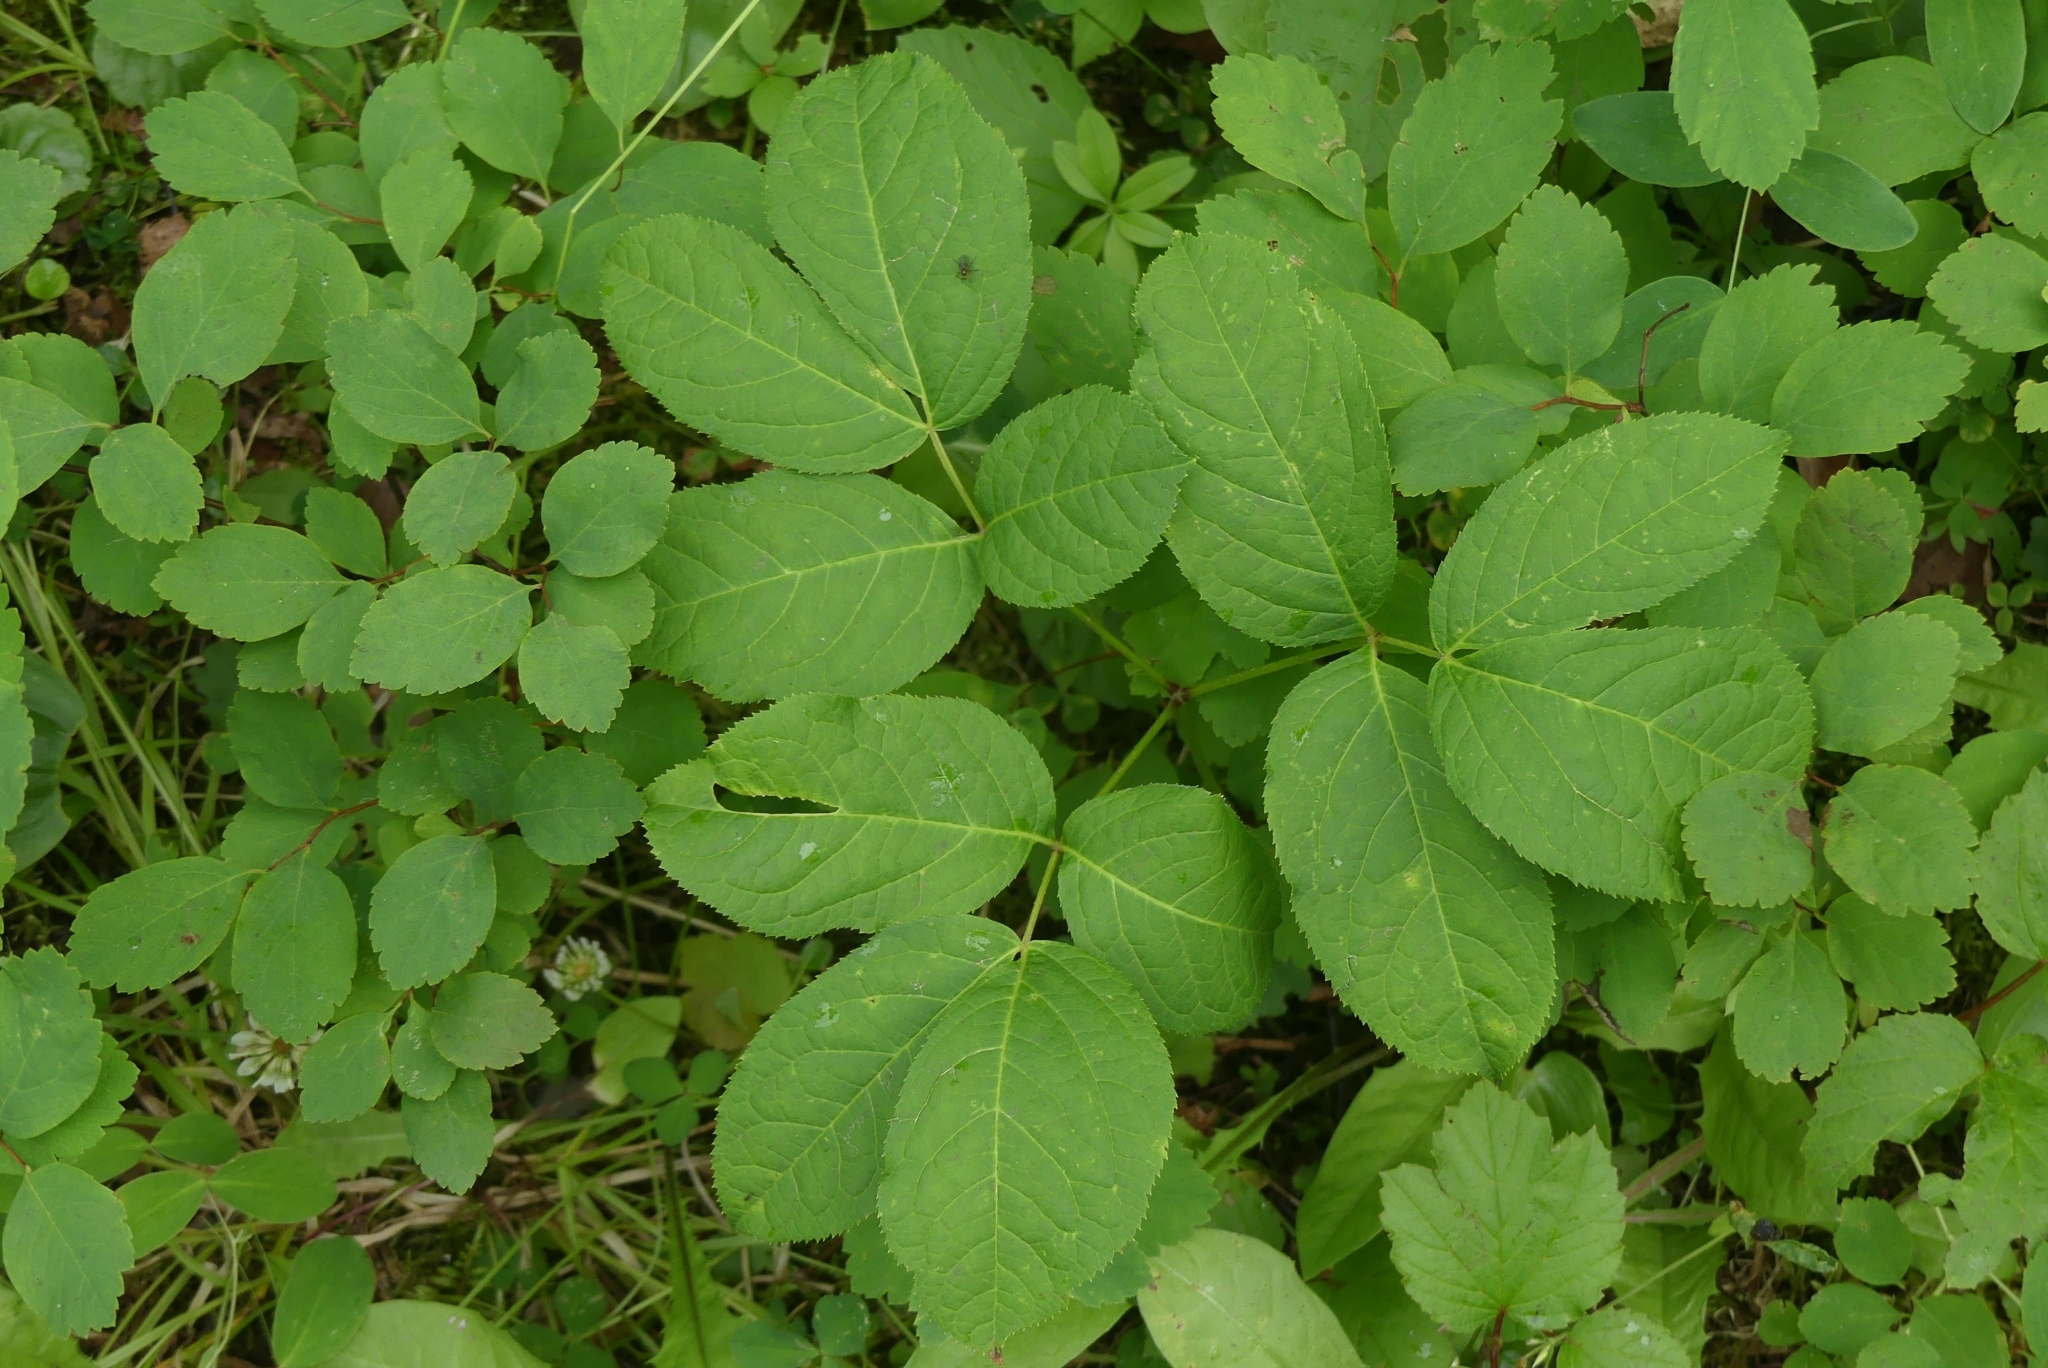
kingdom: Plantae
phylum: Tracheophyta
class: Magnoliopsida
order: Apiales
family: Araliaceae
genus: Aralia
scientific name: Aralia nudicaulis
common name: Wild sarsaparilla
